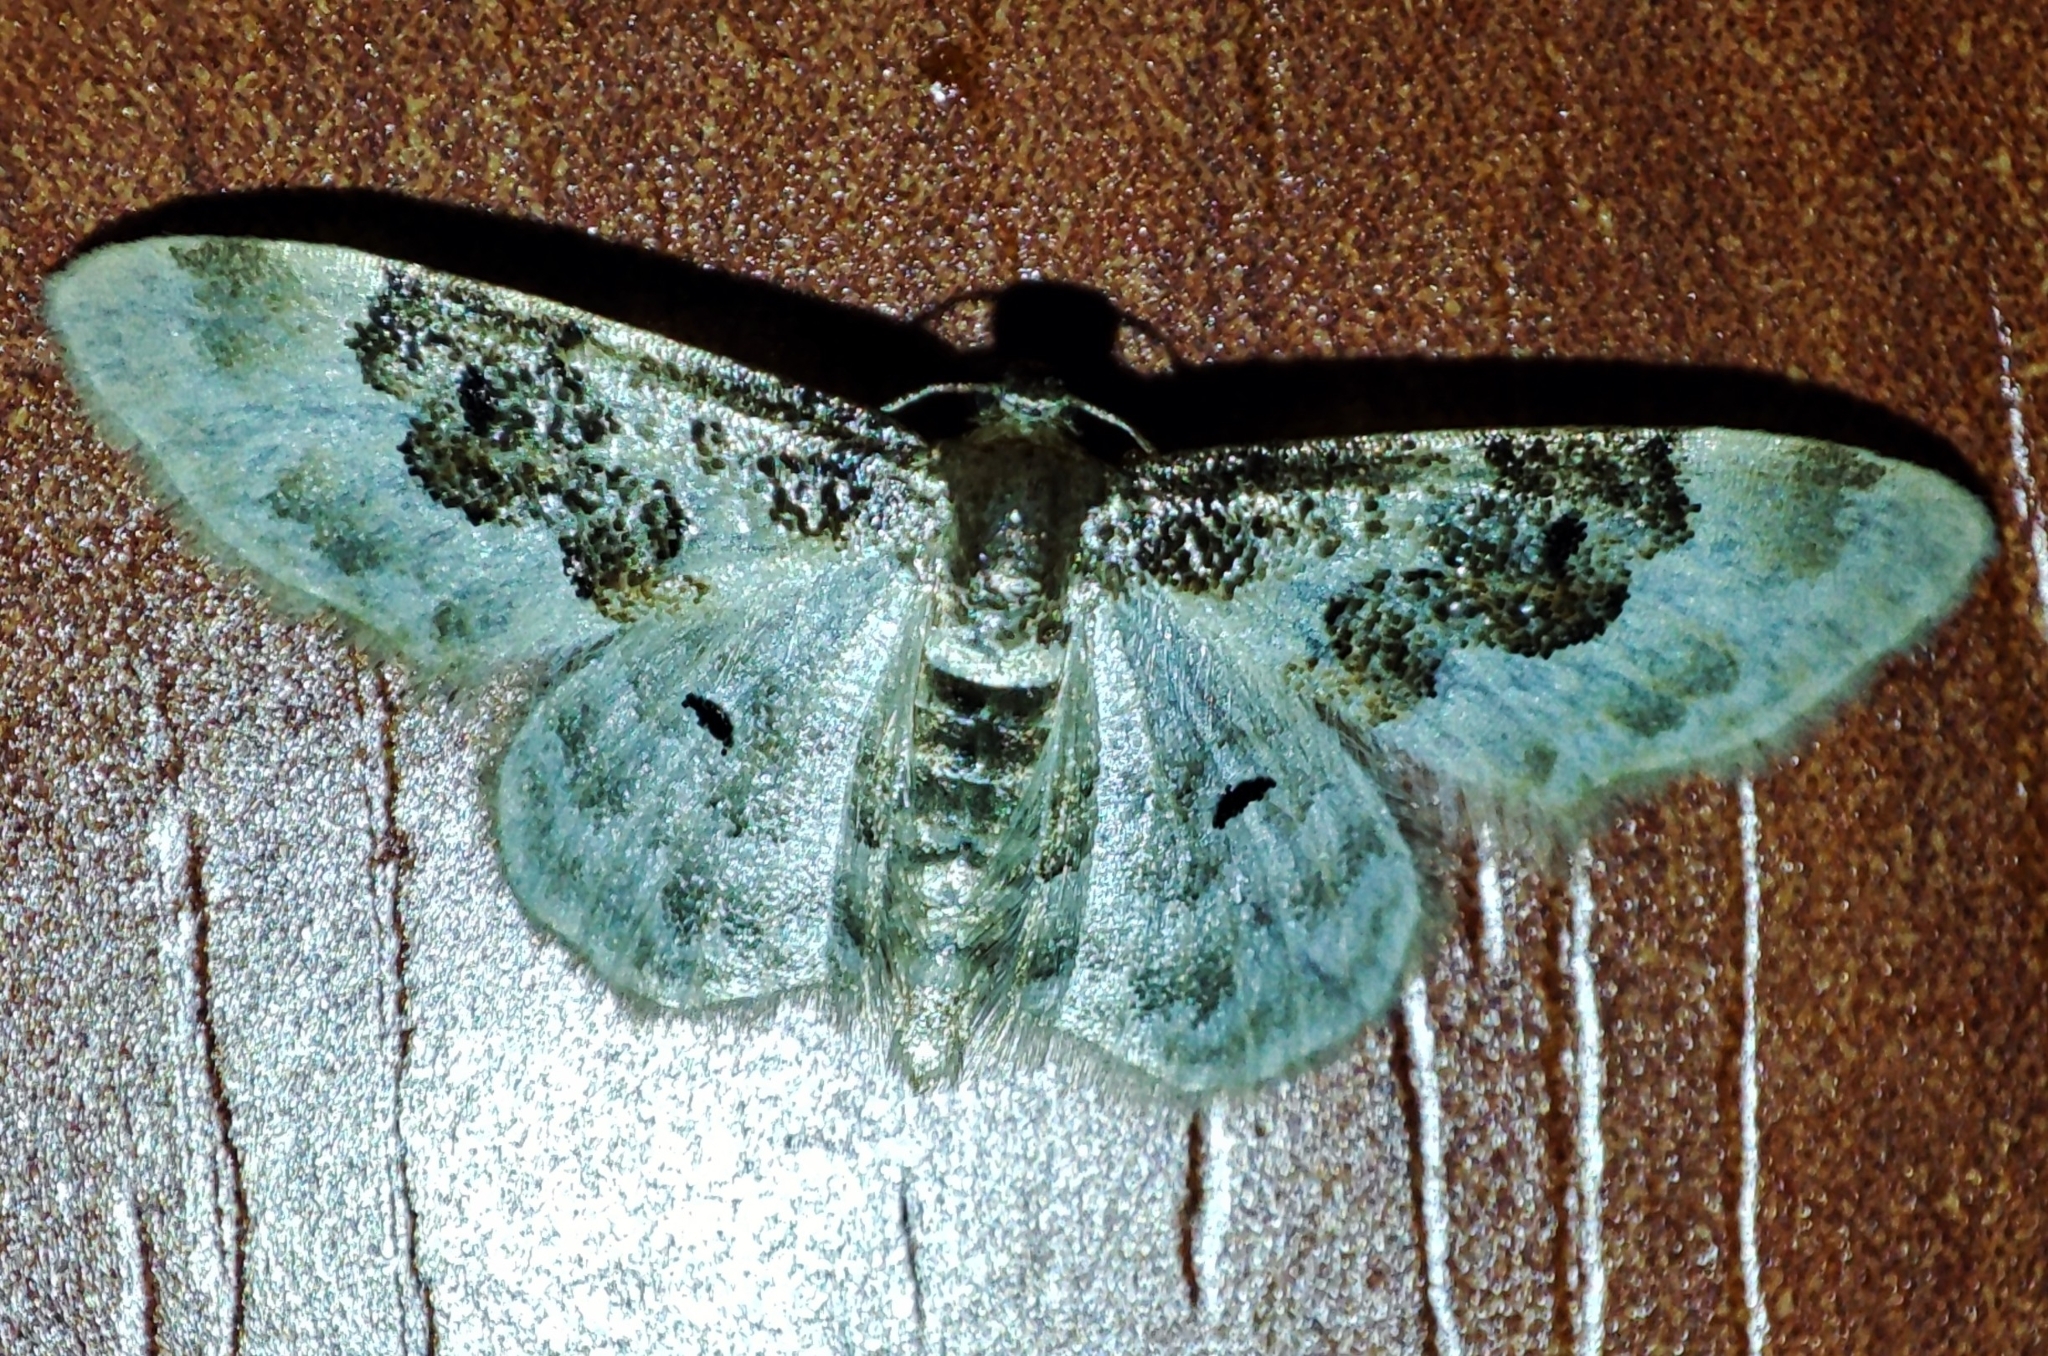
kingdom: Animalia
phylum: Arthropoda
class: Insecta
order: Lepidoptera
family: Geometridae
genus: Idaea
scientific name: Idaea rusticata
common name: Least carpet
